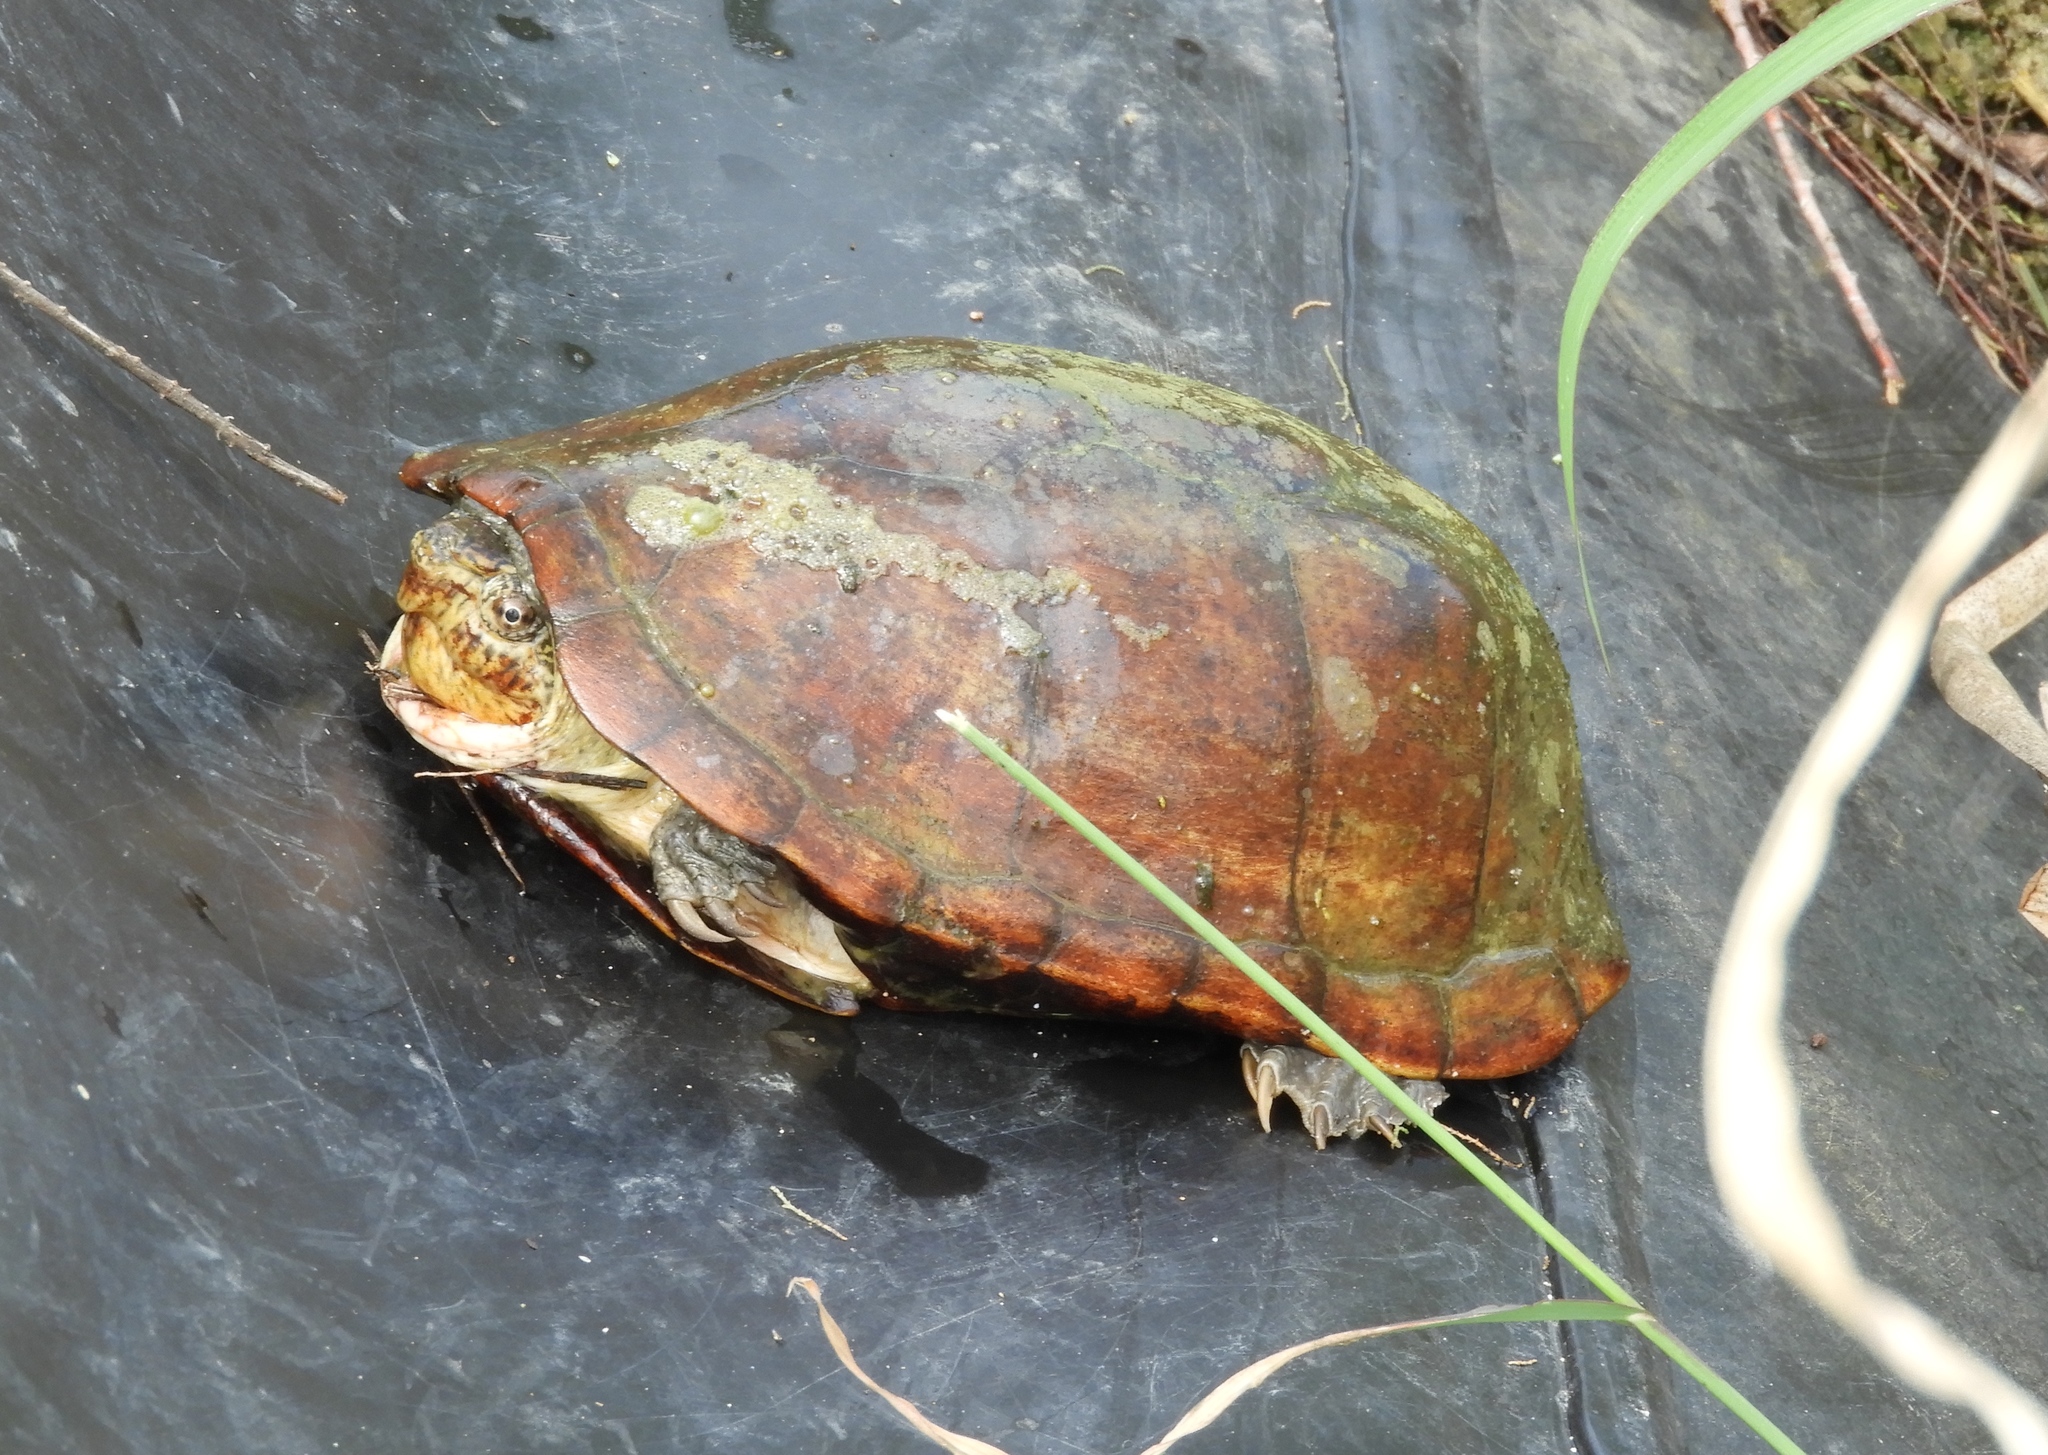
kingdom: Animalia
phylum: Chordata
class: Testudines
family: Kinosternidae
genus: Kinosternon
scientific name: Kinosternon integrum
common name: Mexican mud turtle
